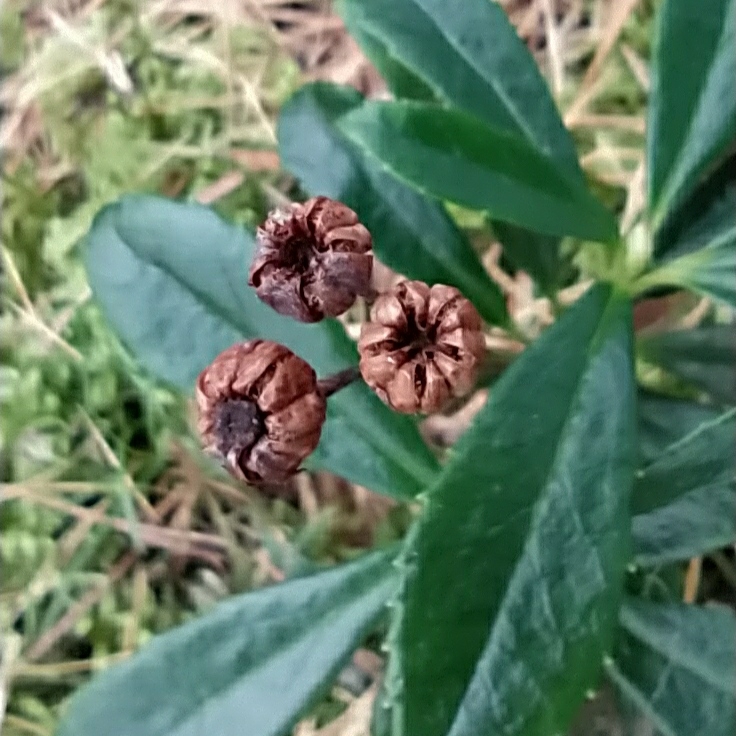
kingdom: Plantae
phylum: Tracheophyta
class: Magnoliopsida
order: Ericales
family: Ericaceae
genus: Chimaphila
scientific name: Chimaphila umbellata
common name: Pipsissewa
